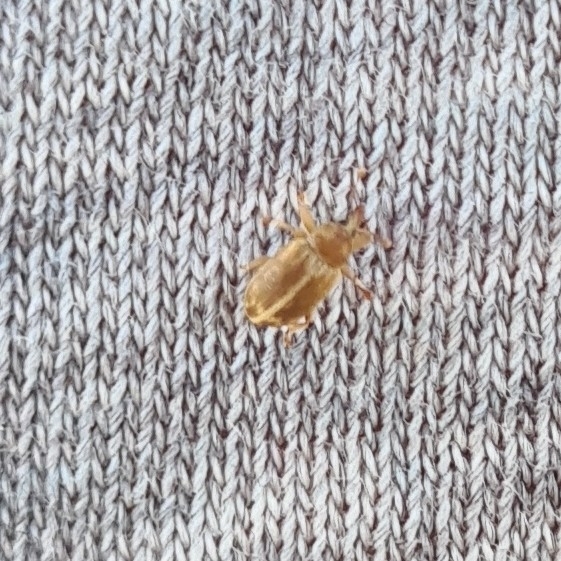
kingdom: Animalia
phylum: Arthropoda
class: Insecta
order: Coleoptera
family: Curculionidae
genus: Ellescus
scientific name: Ellescus scanicus
